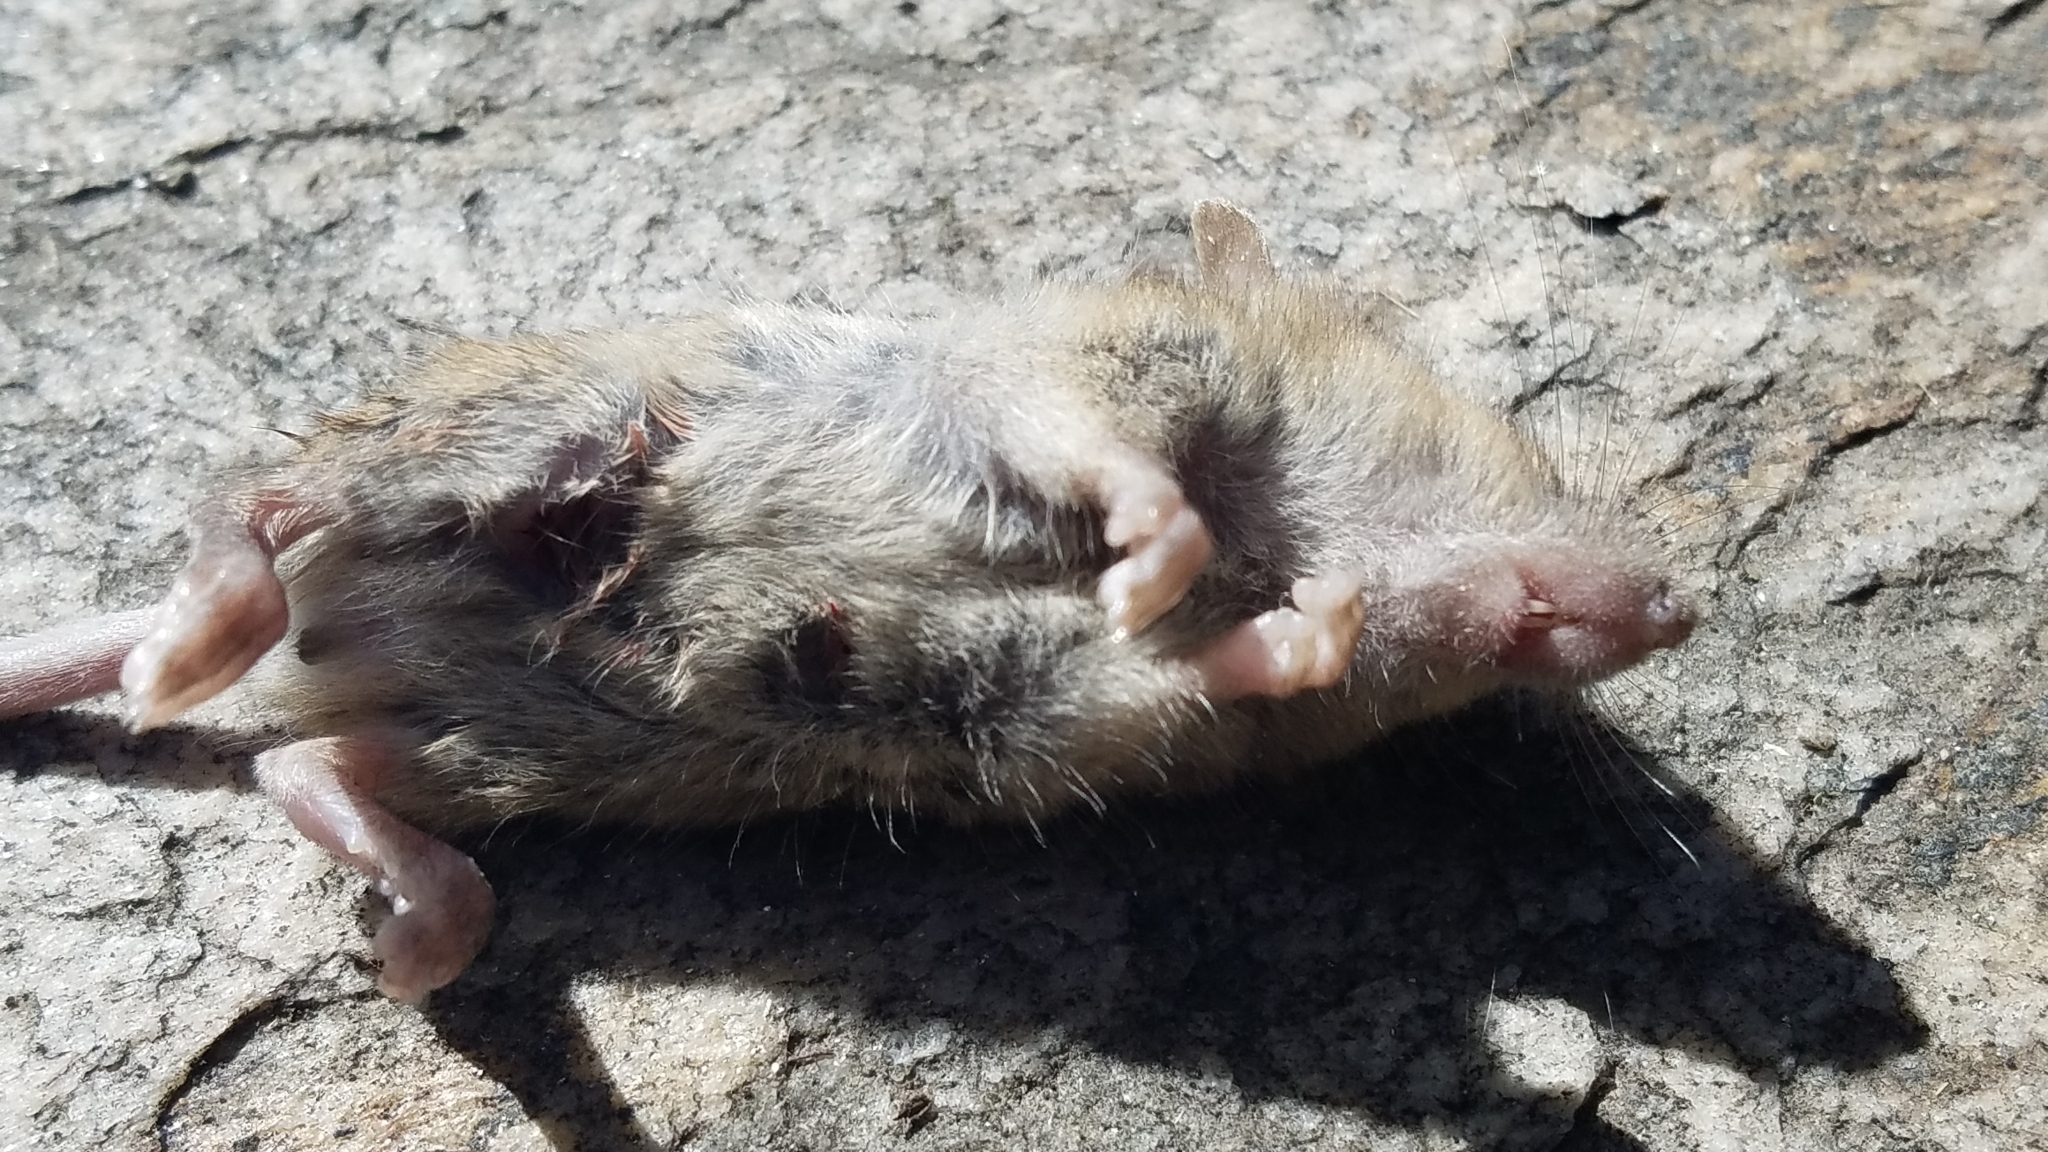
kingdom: Animalia
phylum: Chordata
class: Mammalia
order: Rodentia
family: Muridae
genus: Mus
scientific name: Mus musculus
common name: House mouse
